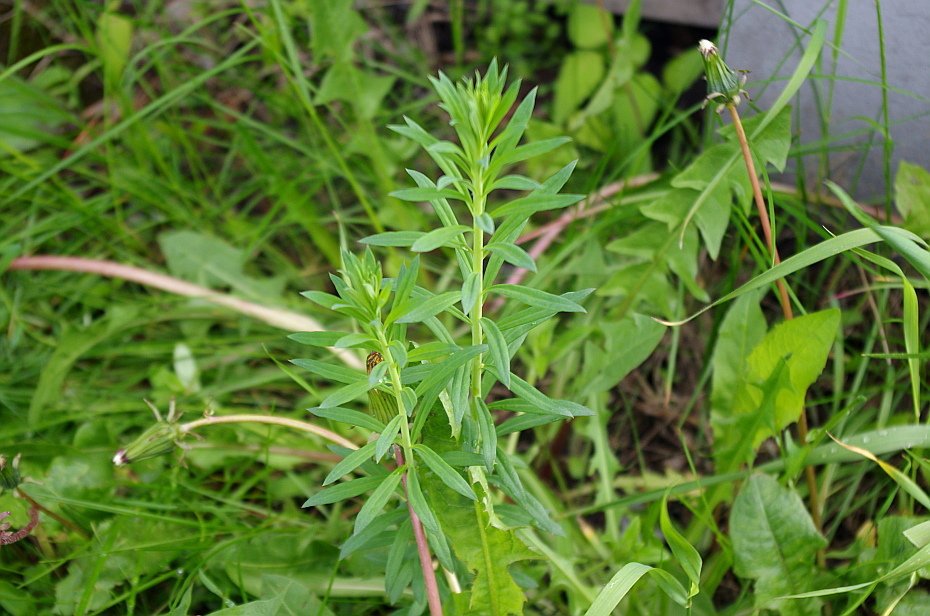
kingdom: Plantae
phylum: Tracheophyta
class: Magnoliopsida
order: Lamiales
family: Plantaginaceae
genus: Linaria
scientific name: Linaria vulgaris
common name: Butter and eggs
